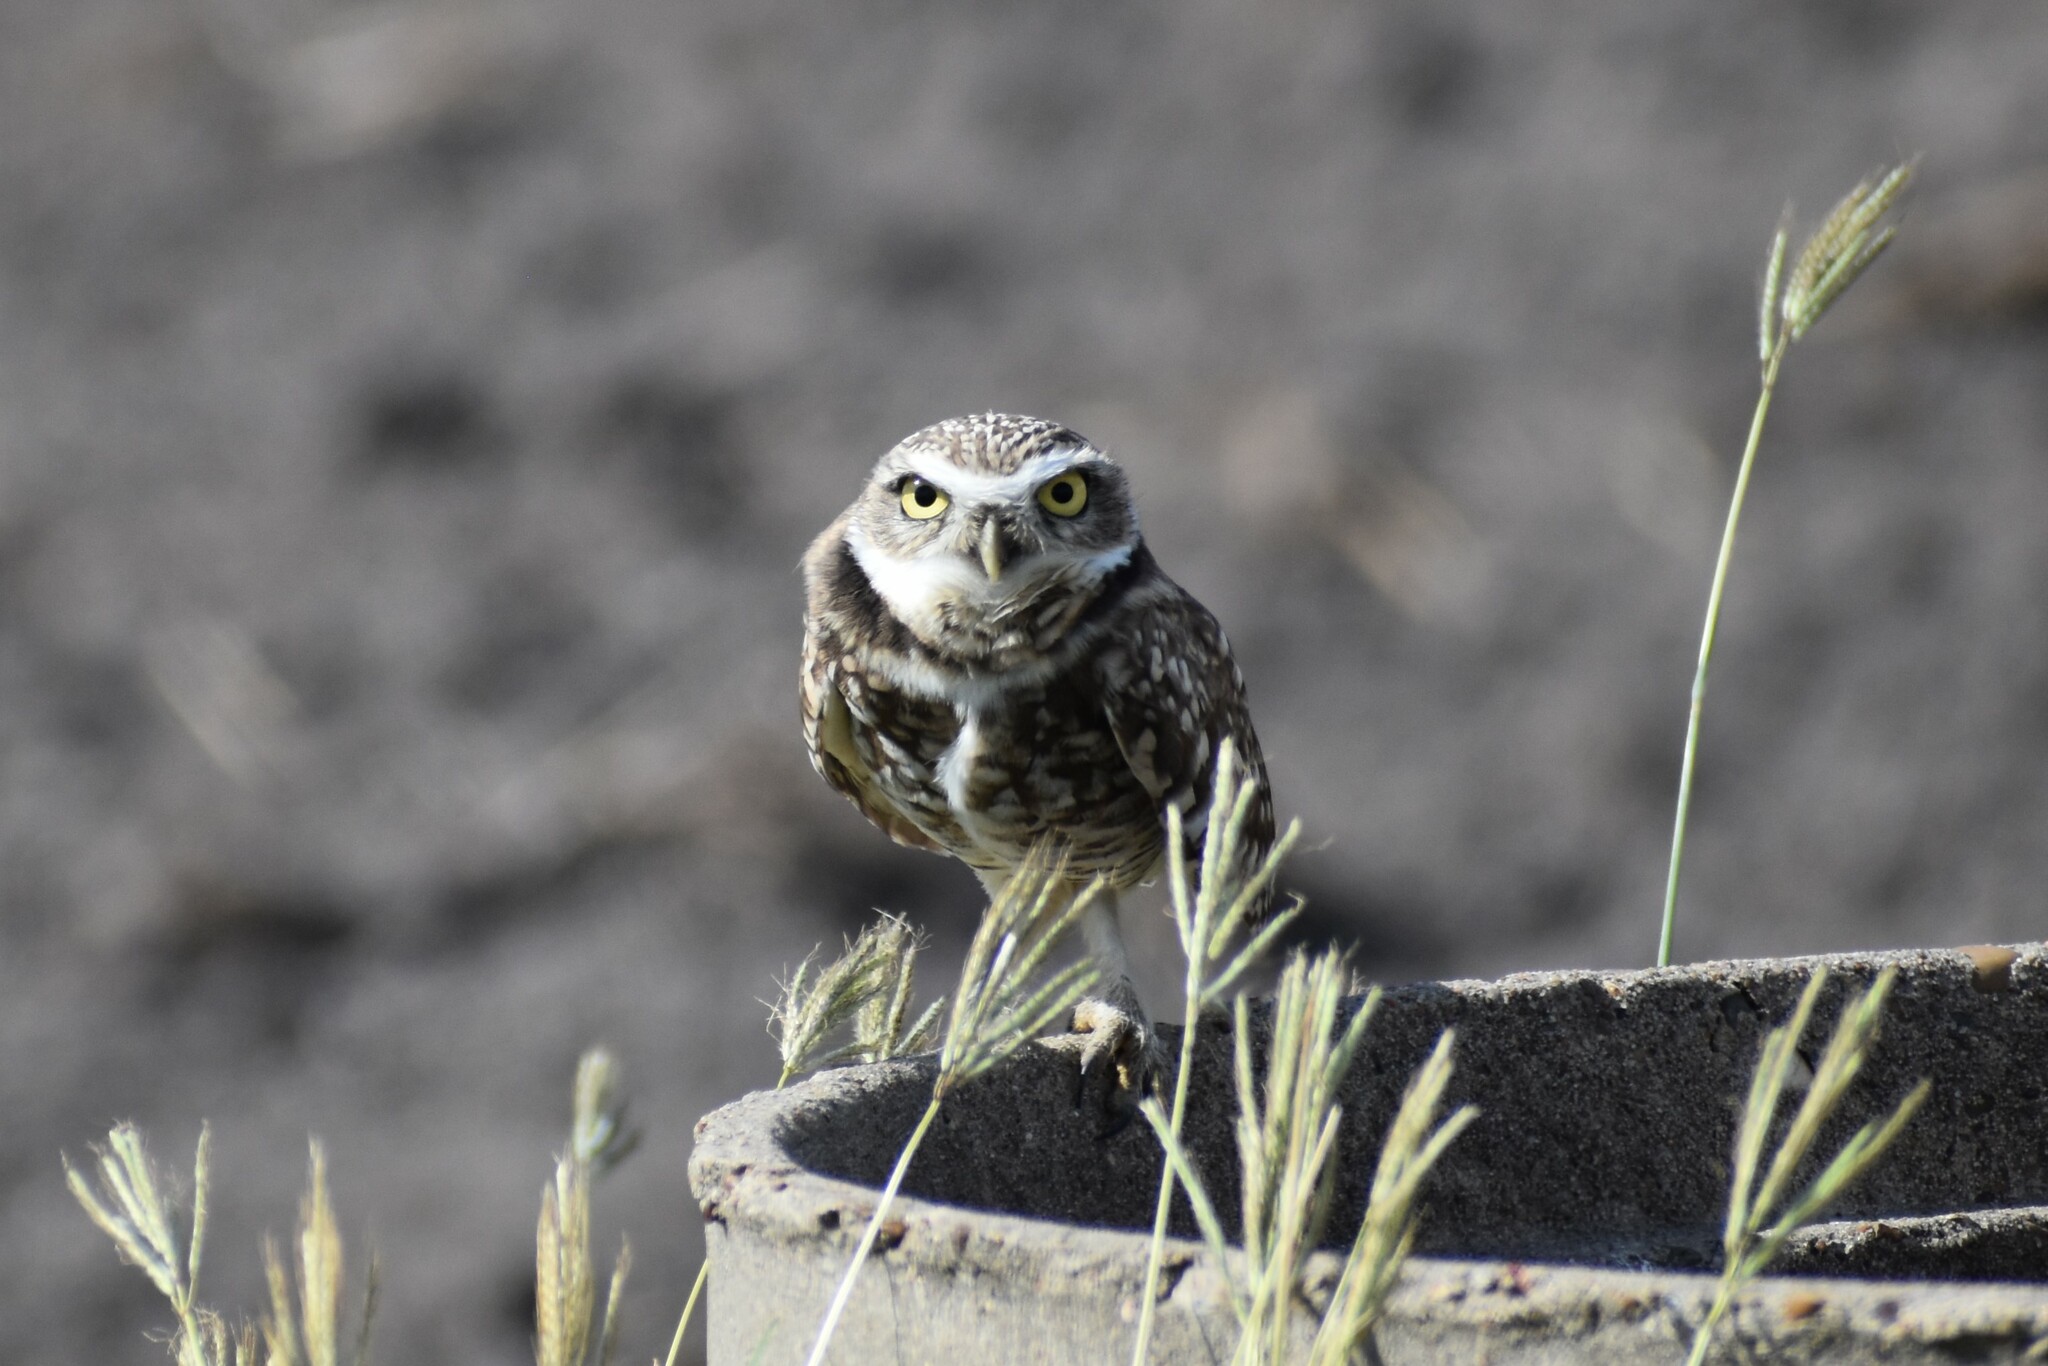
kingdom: Animalia
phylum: Chordata
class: Aves
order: Strigiformes
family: Strigidae
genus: Athene
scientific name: Athene cunicularia
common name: Burrowing owl
